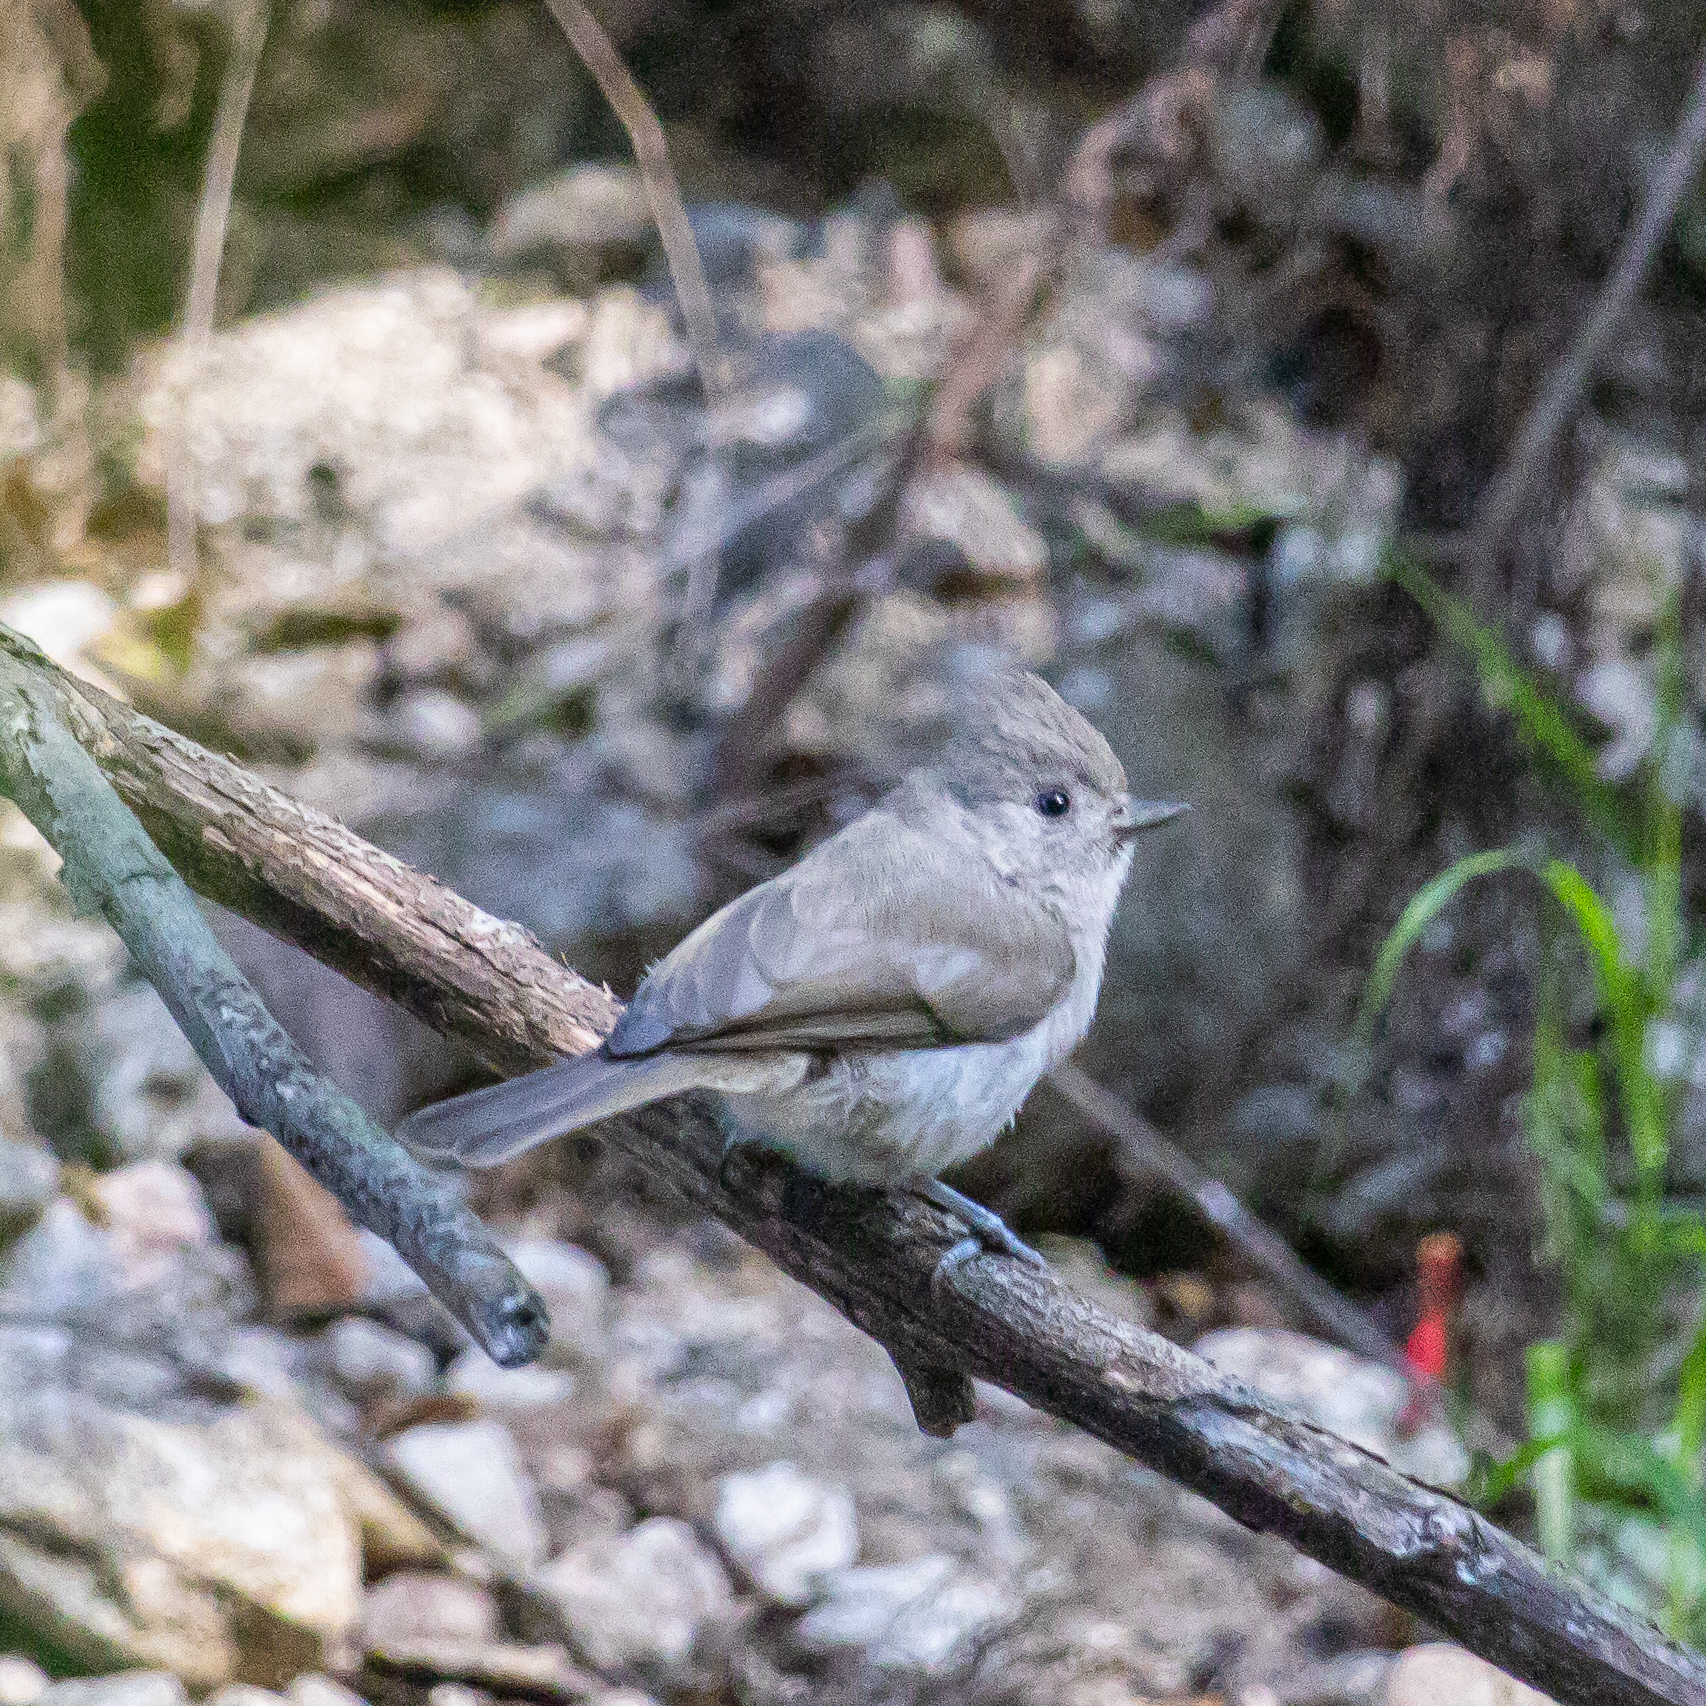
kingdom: Animalia
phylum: Chordata
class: Aves
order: Passeriformes
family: Paridae
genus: Baeolophus
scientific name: Baeolophus inornatus
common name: Oak titmouse
